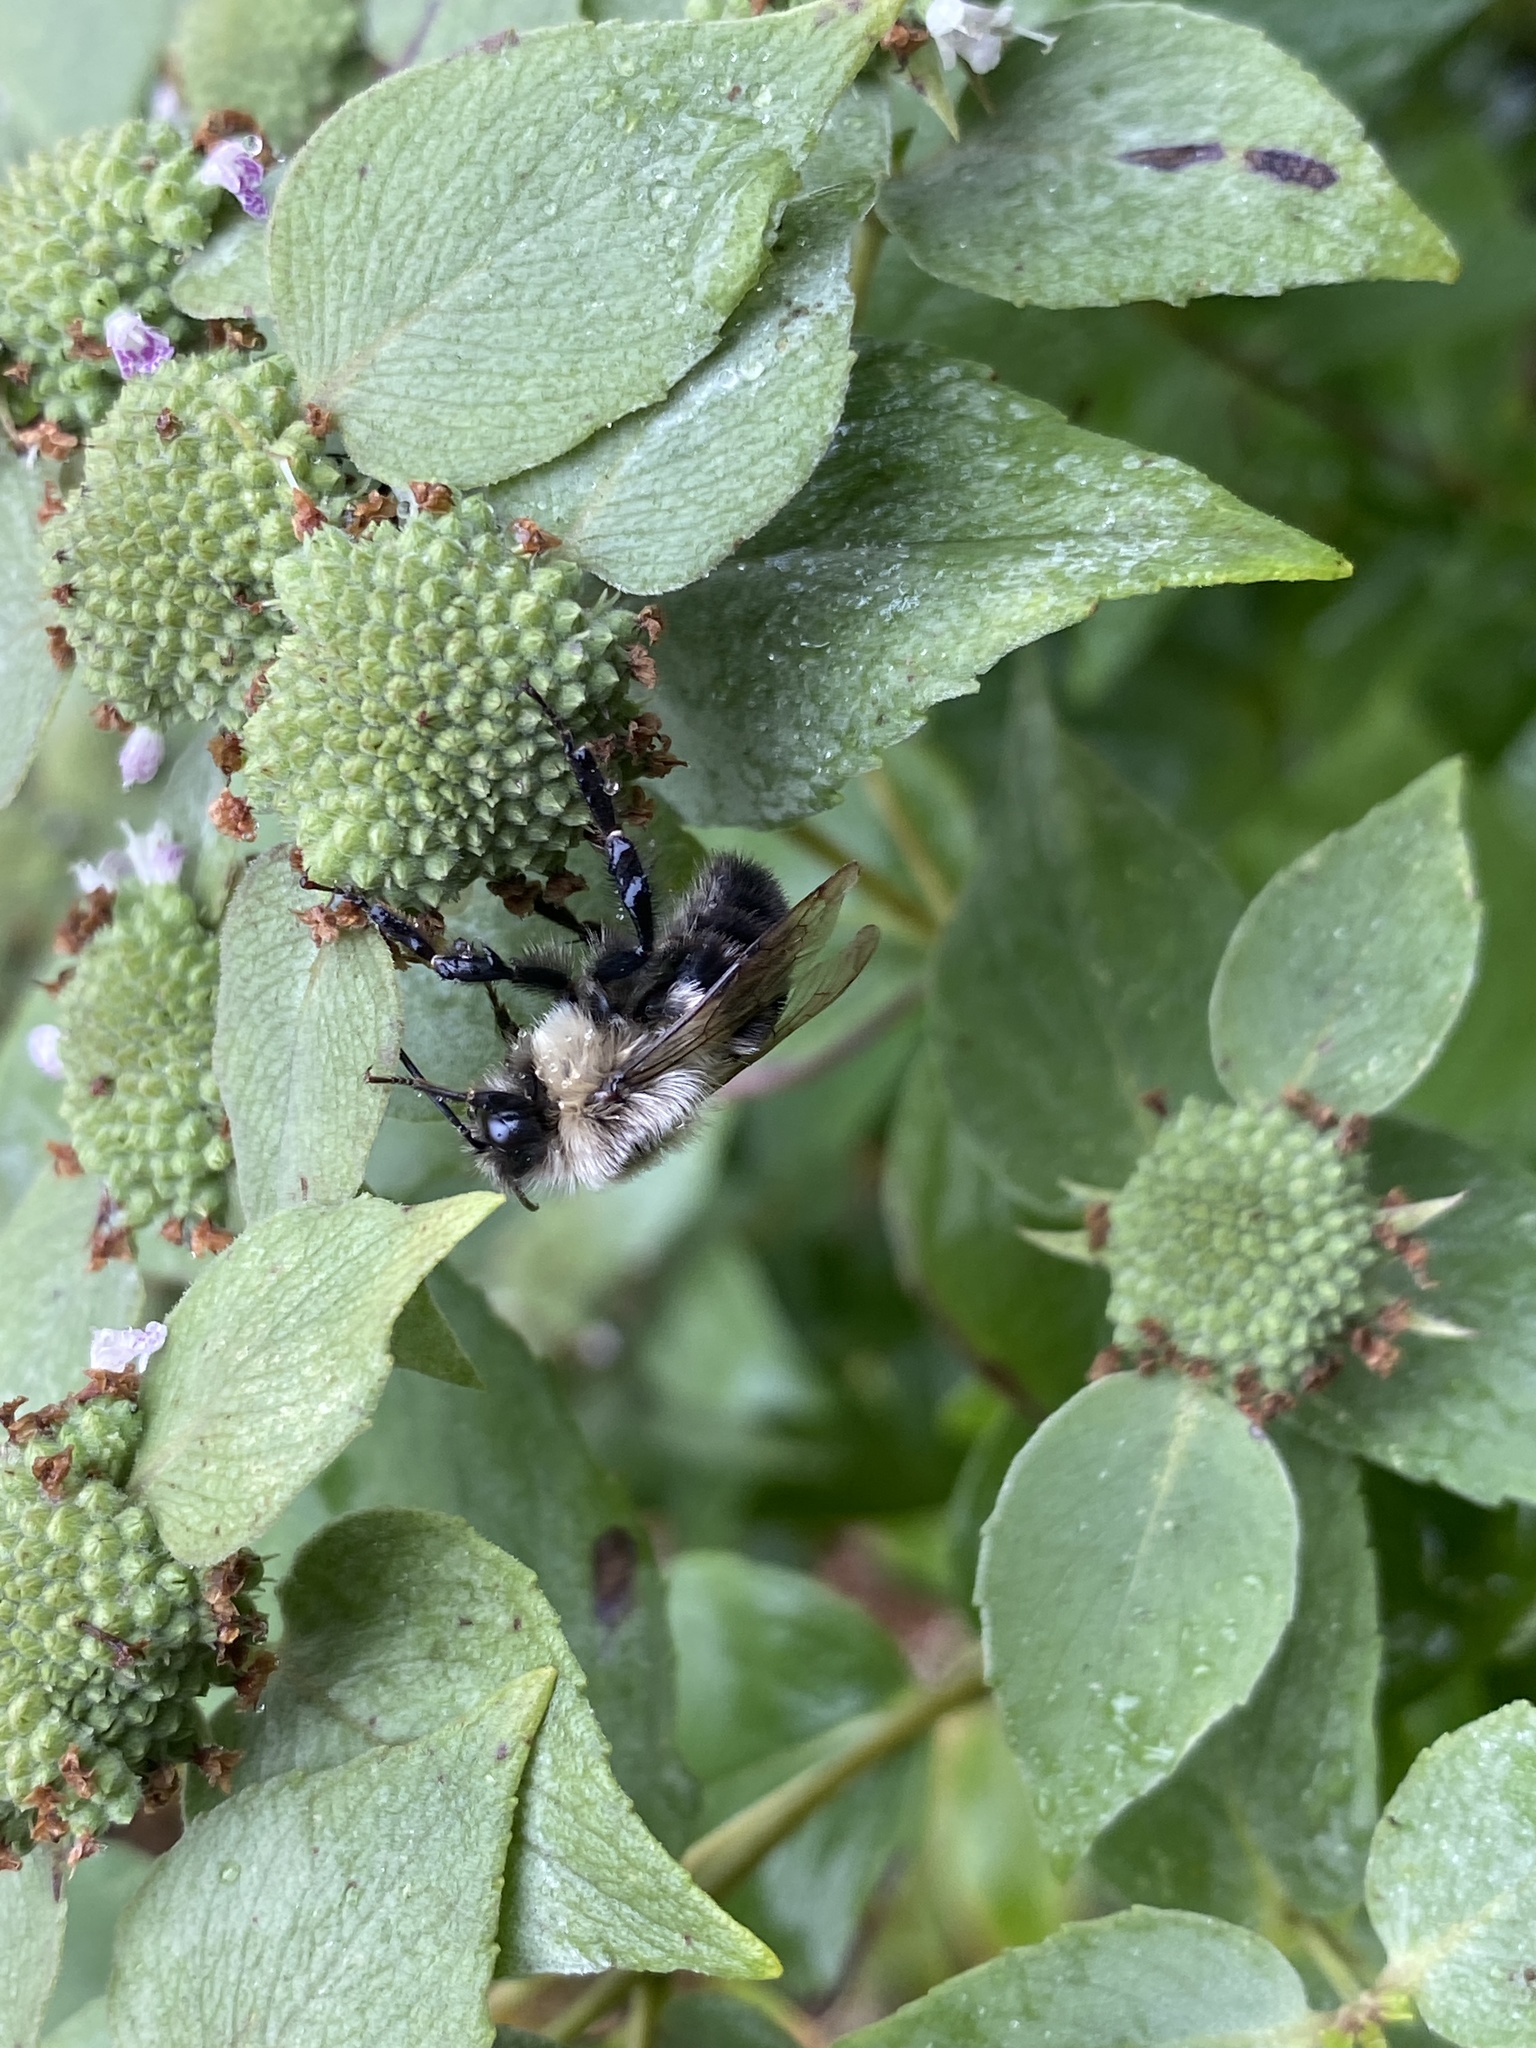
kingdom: Animalia
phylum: Arthropoda
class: Insecta
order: Hymenoptera
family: Apidae
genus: Bombus
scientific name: Bombus impatiens
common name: Common eastern bumble bee
